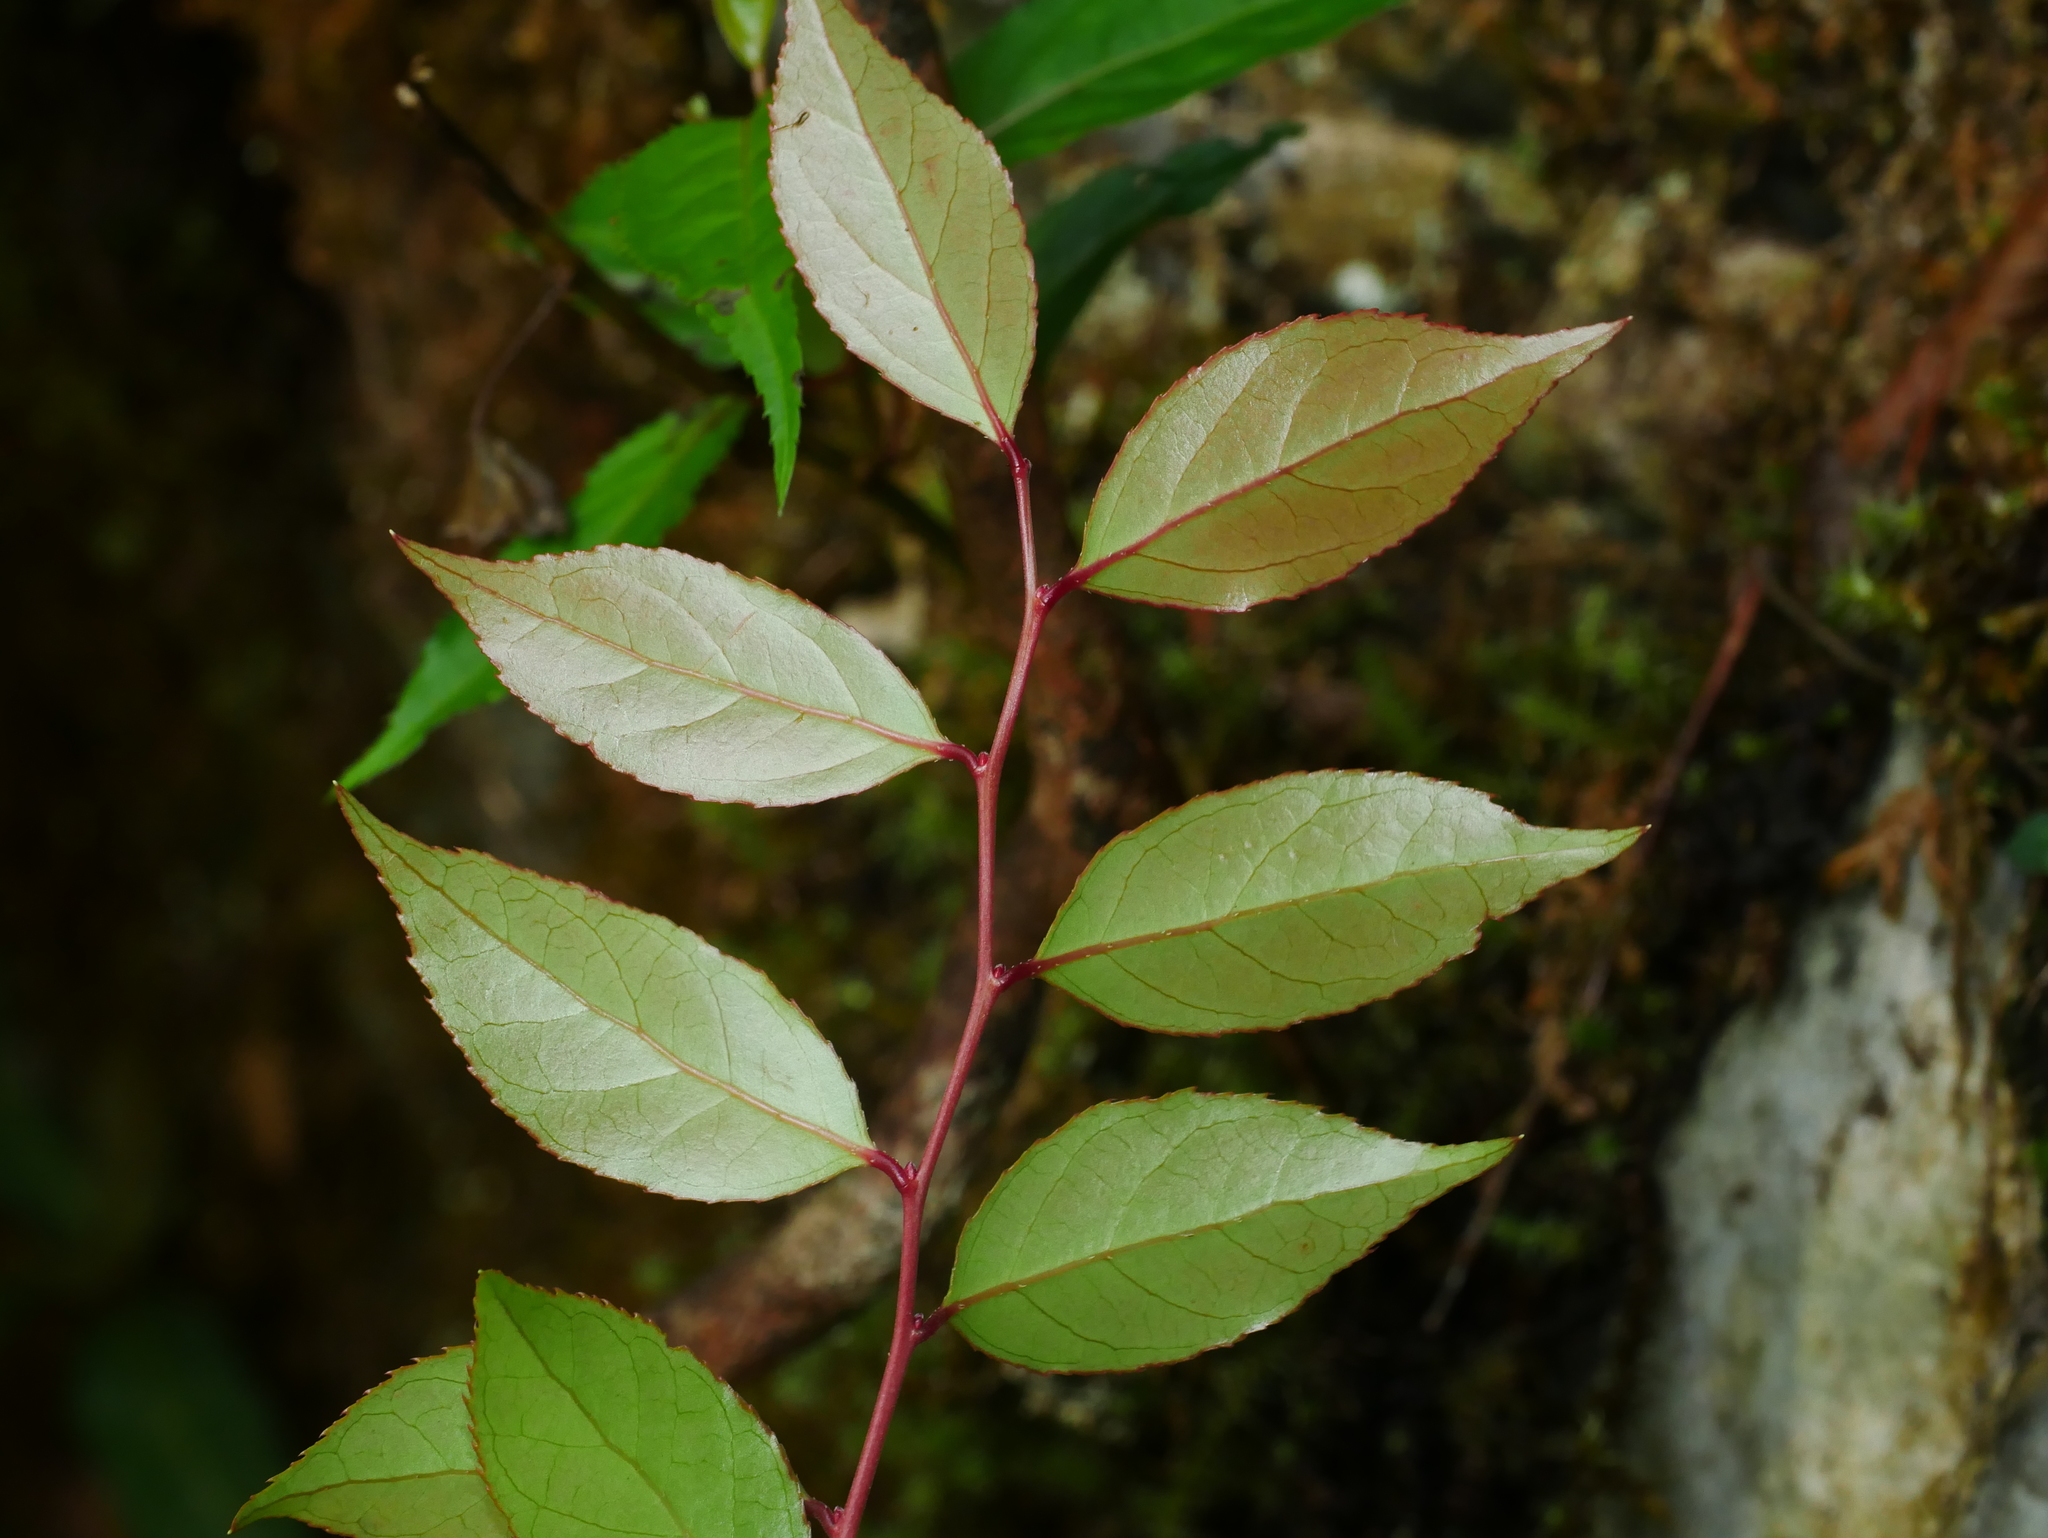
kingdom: Plantae
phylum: Tracheophyta
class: Magnoliopsida
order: Ericales
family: Ericaceae
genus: Gaultheria
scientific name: Gaultheria leucocarpa
